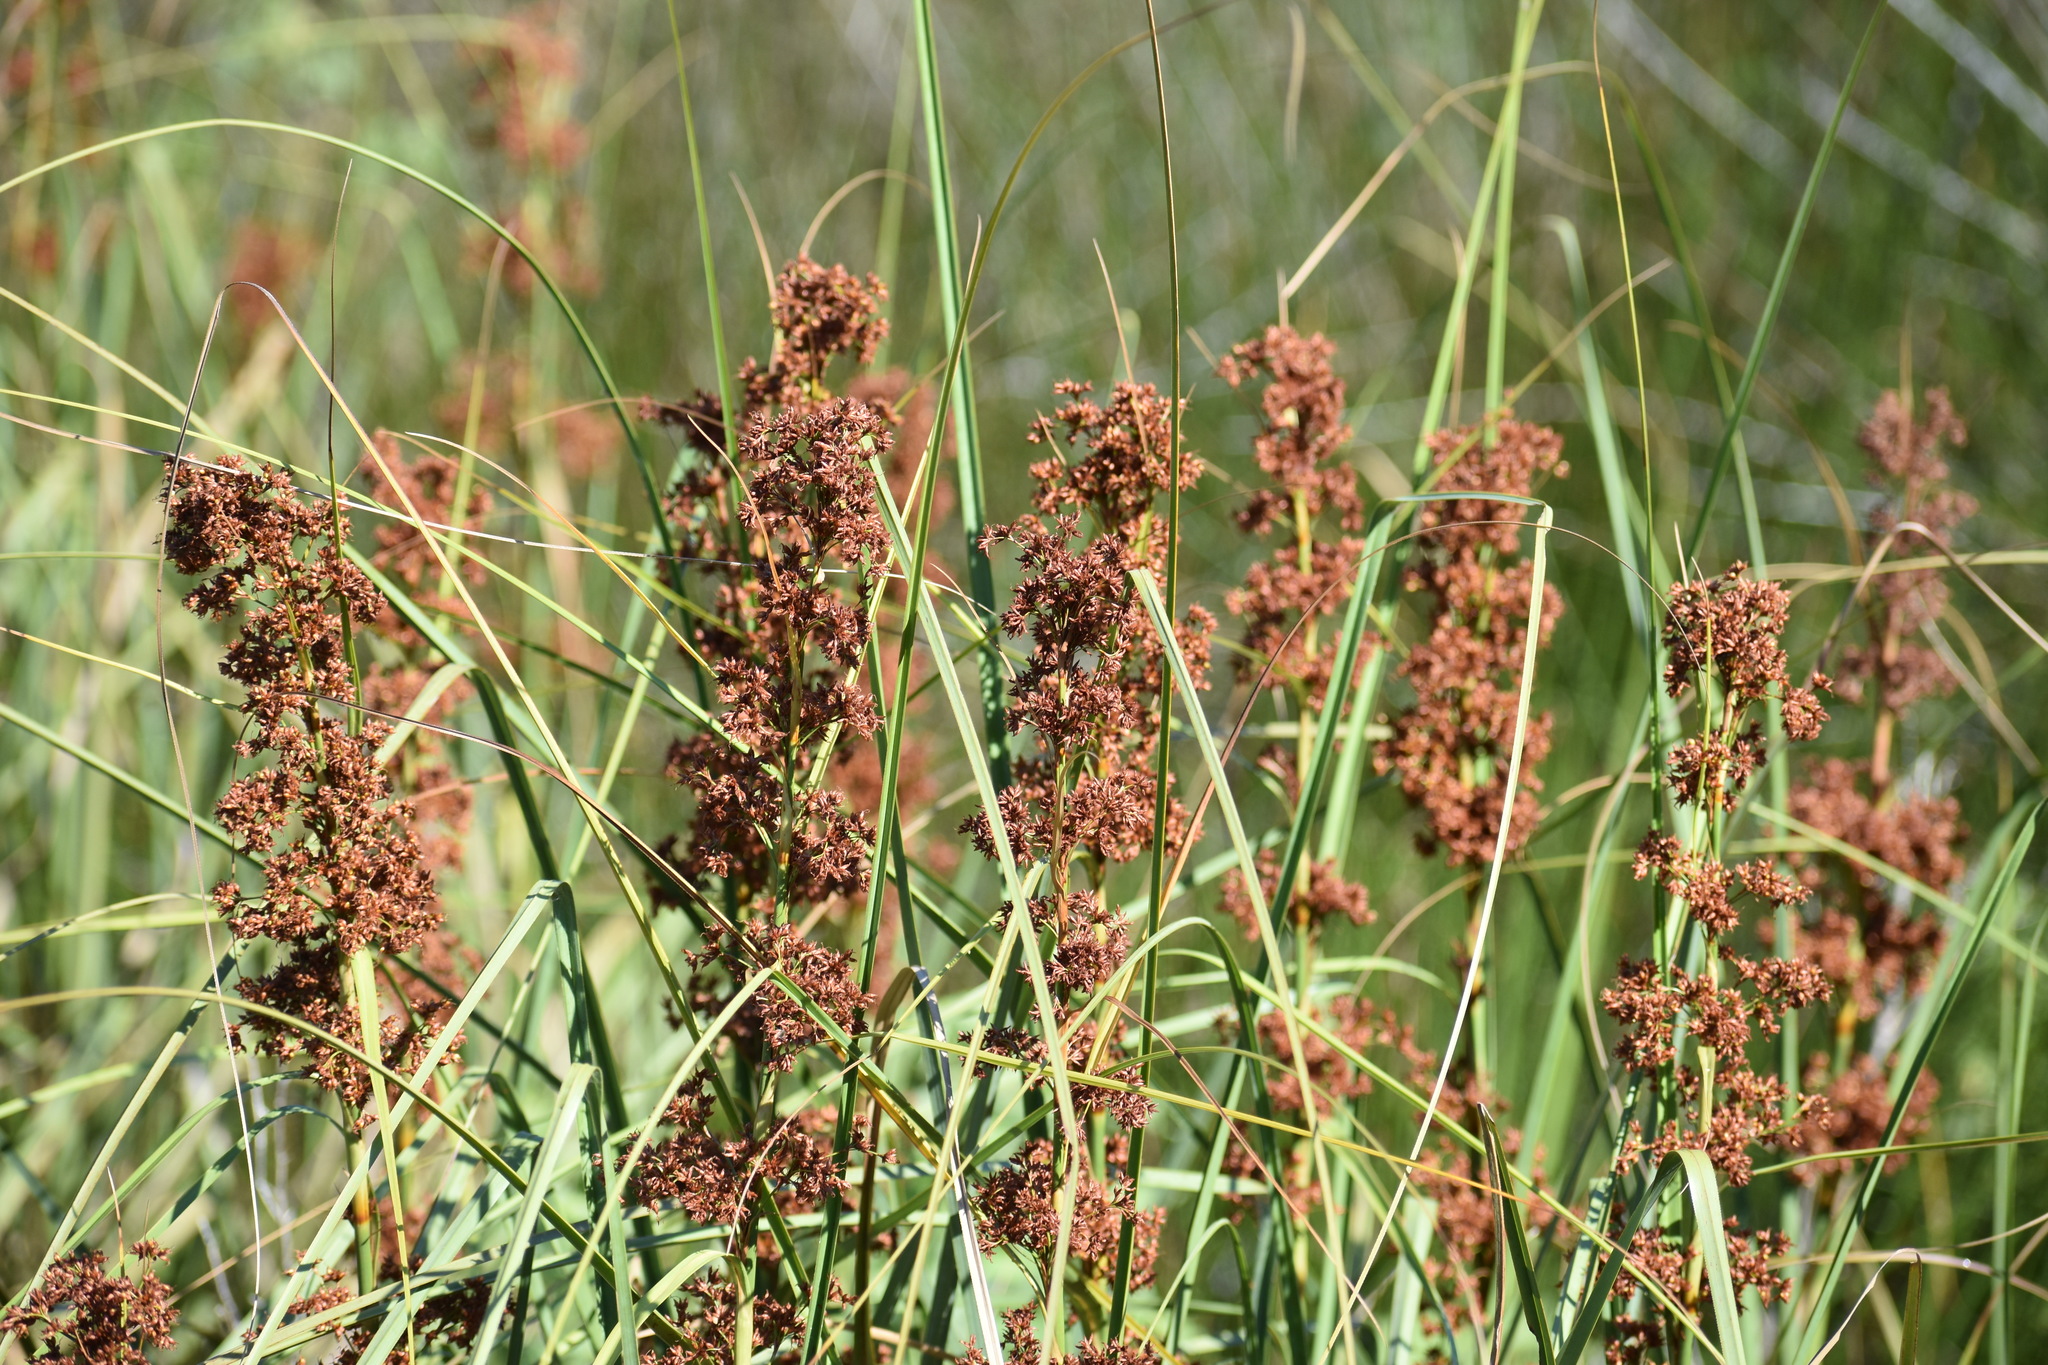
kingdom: Plantae
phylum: Tracheophyta
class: Liliopsida
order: Poales
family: Cyperaceae
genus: Cladium
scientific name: Cladium mariscus
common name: Great fen-sedge
